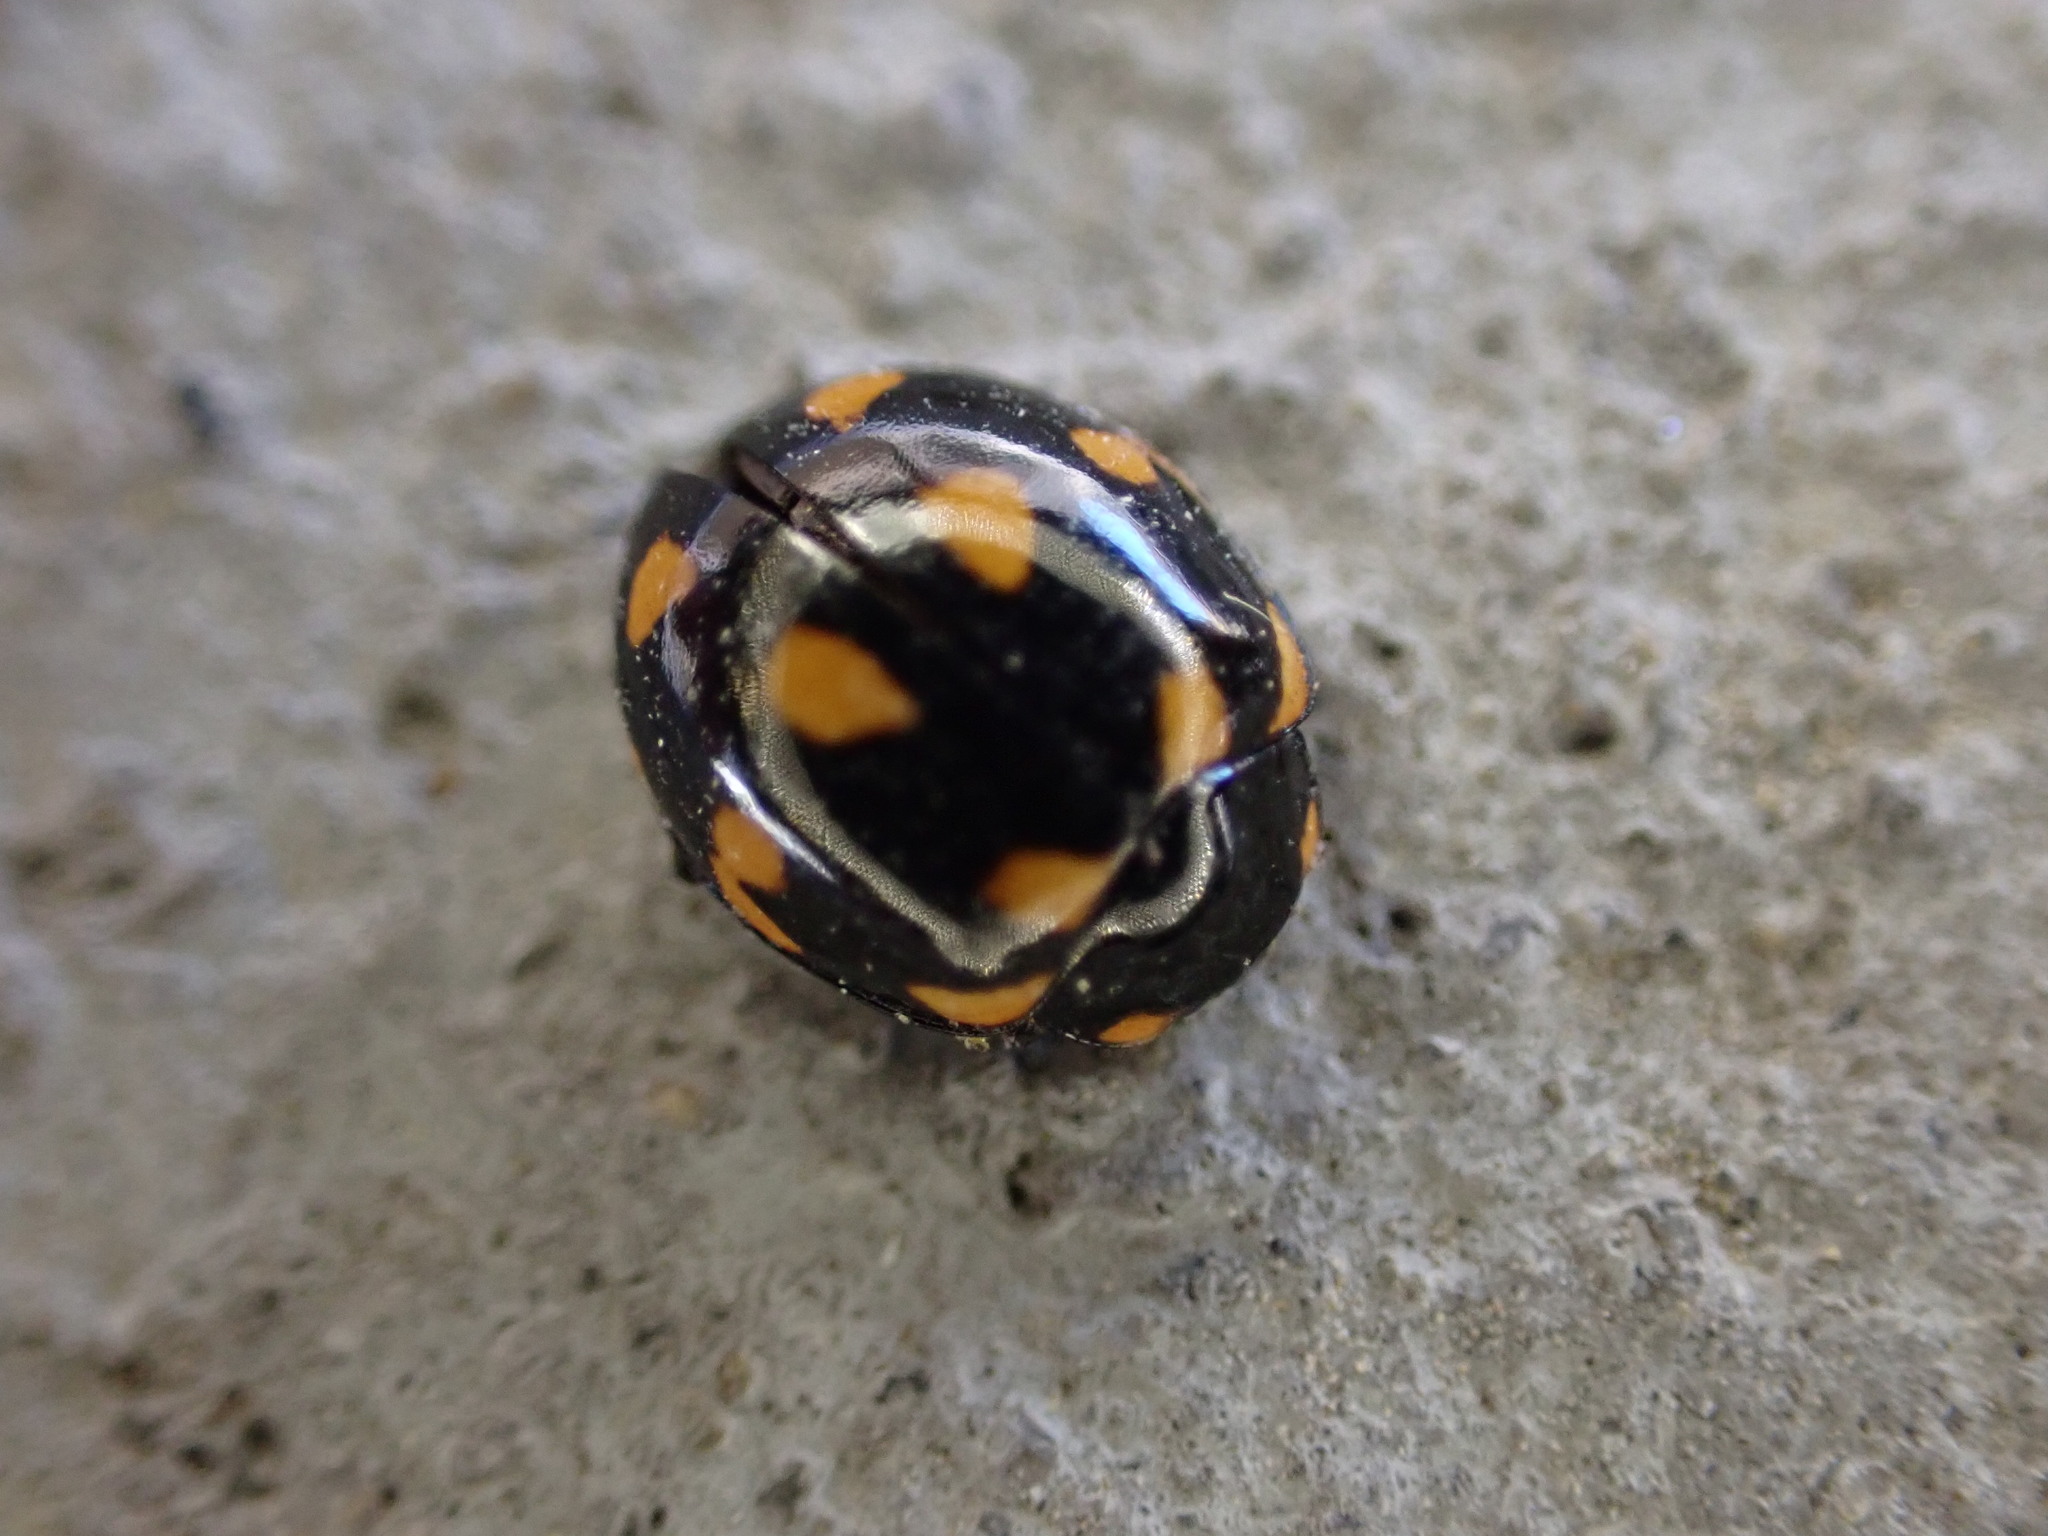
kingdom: Animalia
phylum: Arthropoda
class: Insecta
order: Coleoptera
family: Coccinellidae
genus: Coccinella
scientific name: Coccinella leonina
